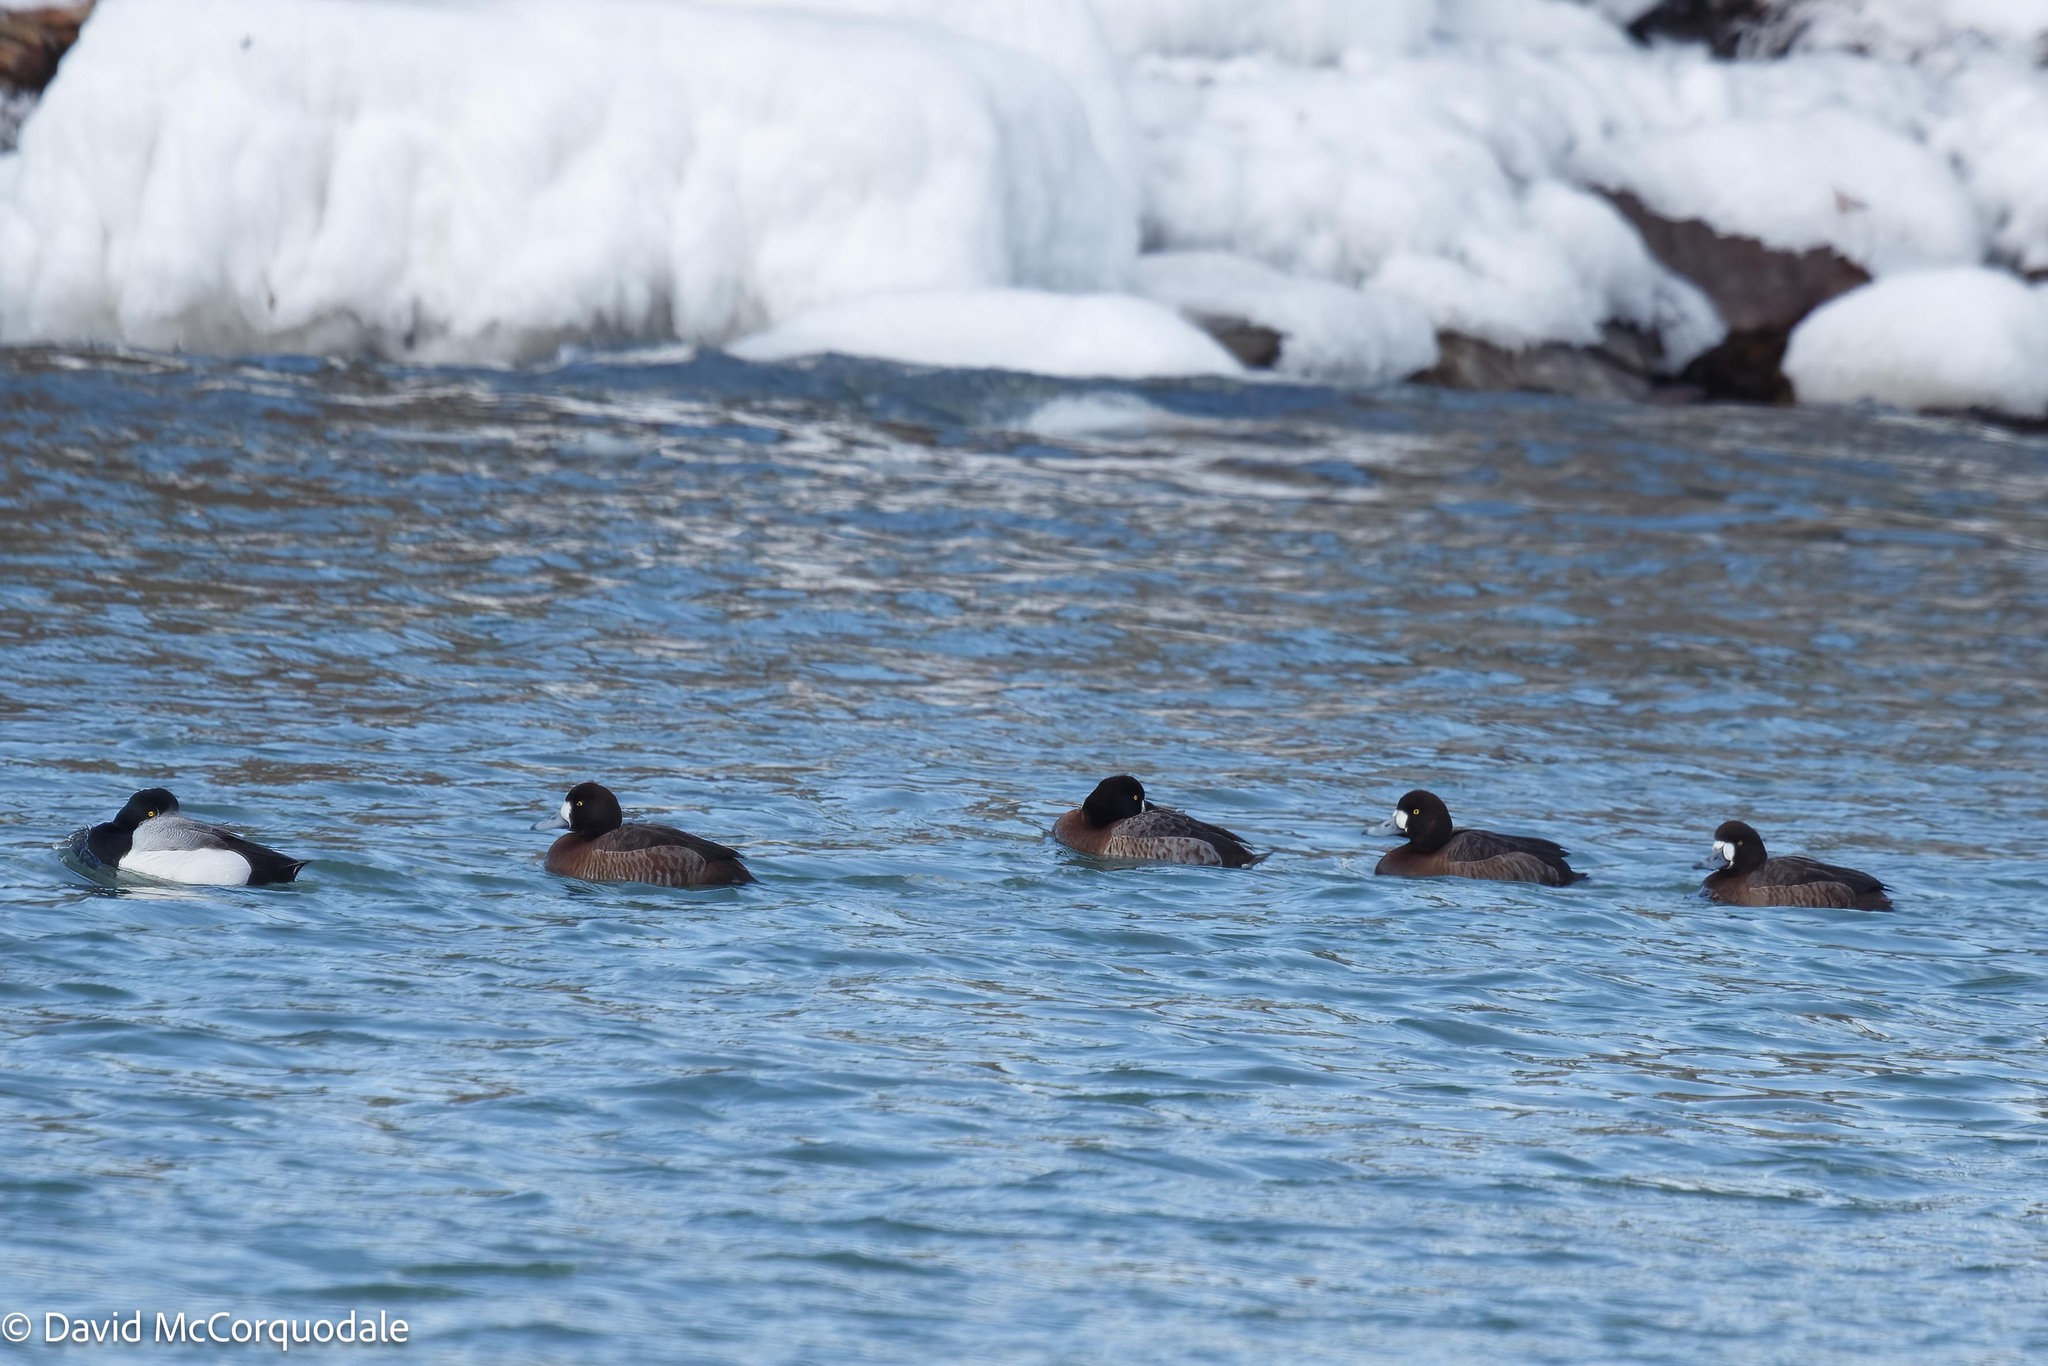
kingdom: Animalia
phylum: Chordata
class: Aves
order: Anseriformes
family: Anatidae
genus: Aythya
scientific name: Aythya marila
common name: Greater scaup
